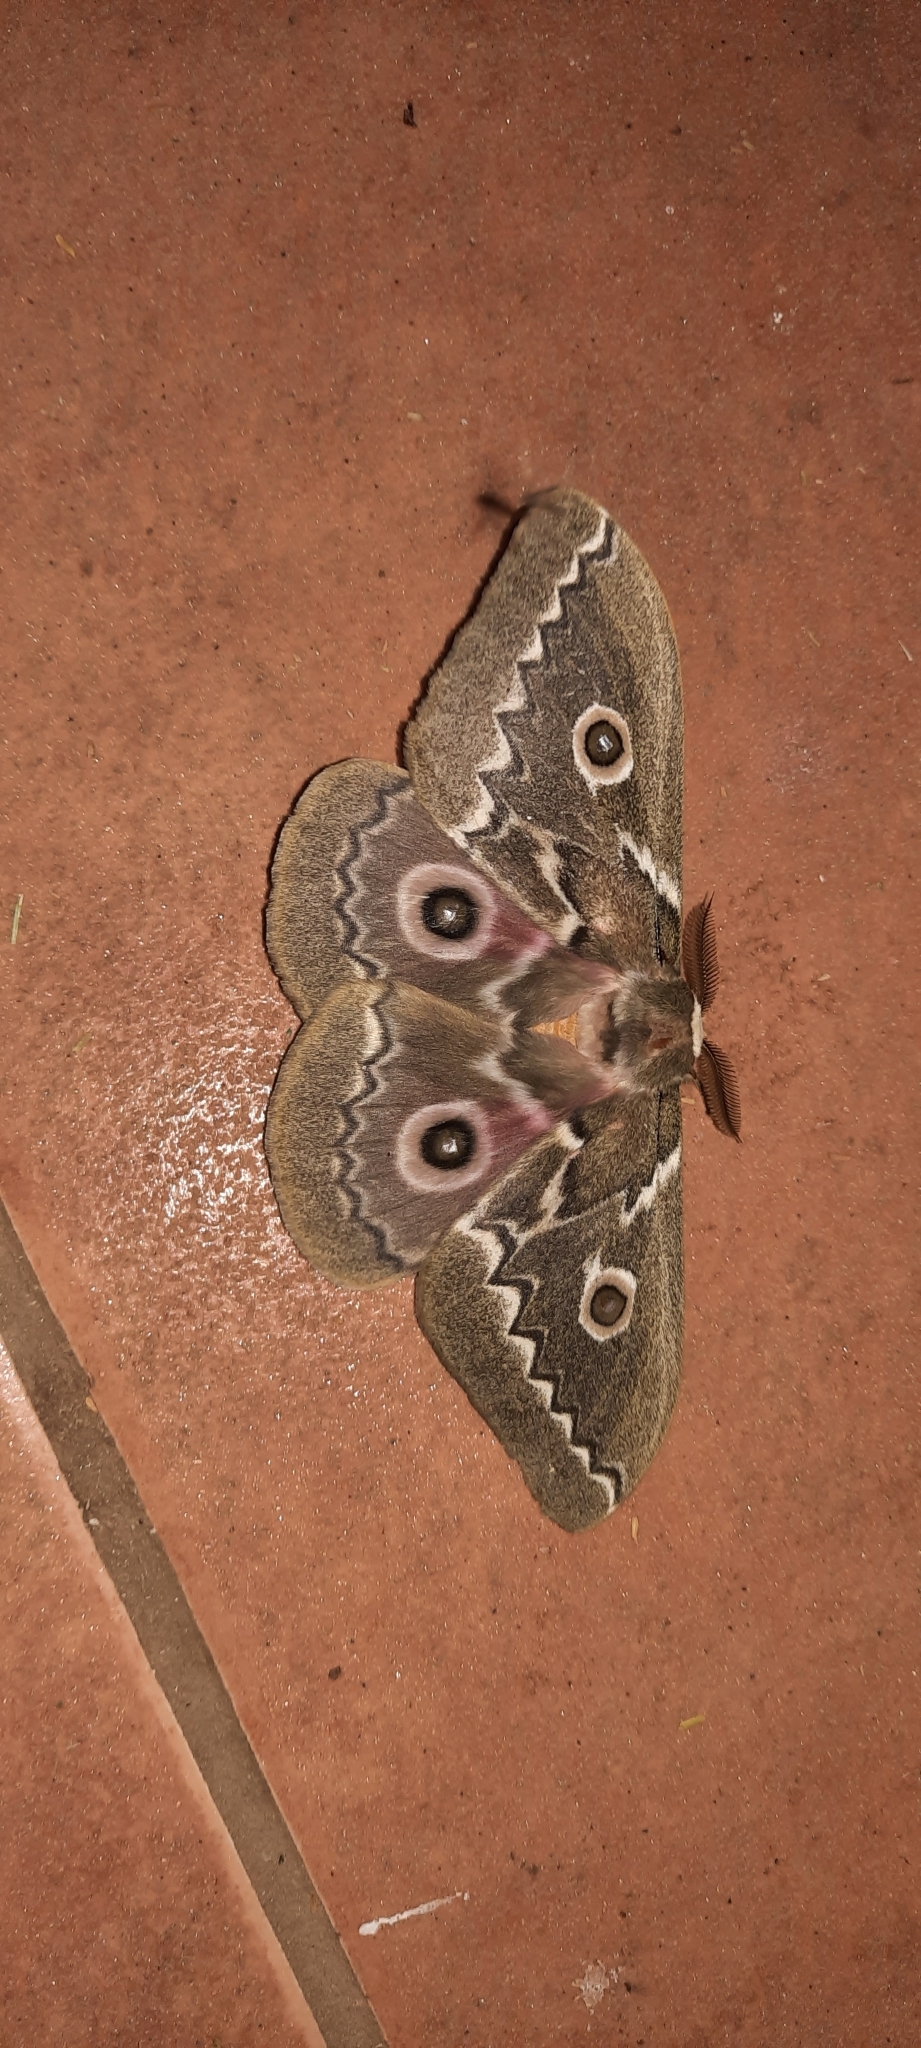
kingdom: Animalia
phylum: Arthropoda
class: Insecta
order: Lepidoptera
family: Saturniidae
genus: Gonimbrasia
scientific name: Gonimbrasia tyrrhea
